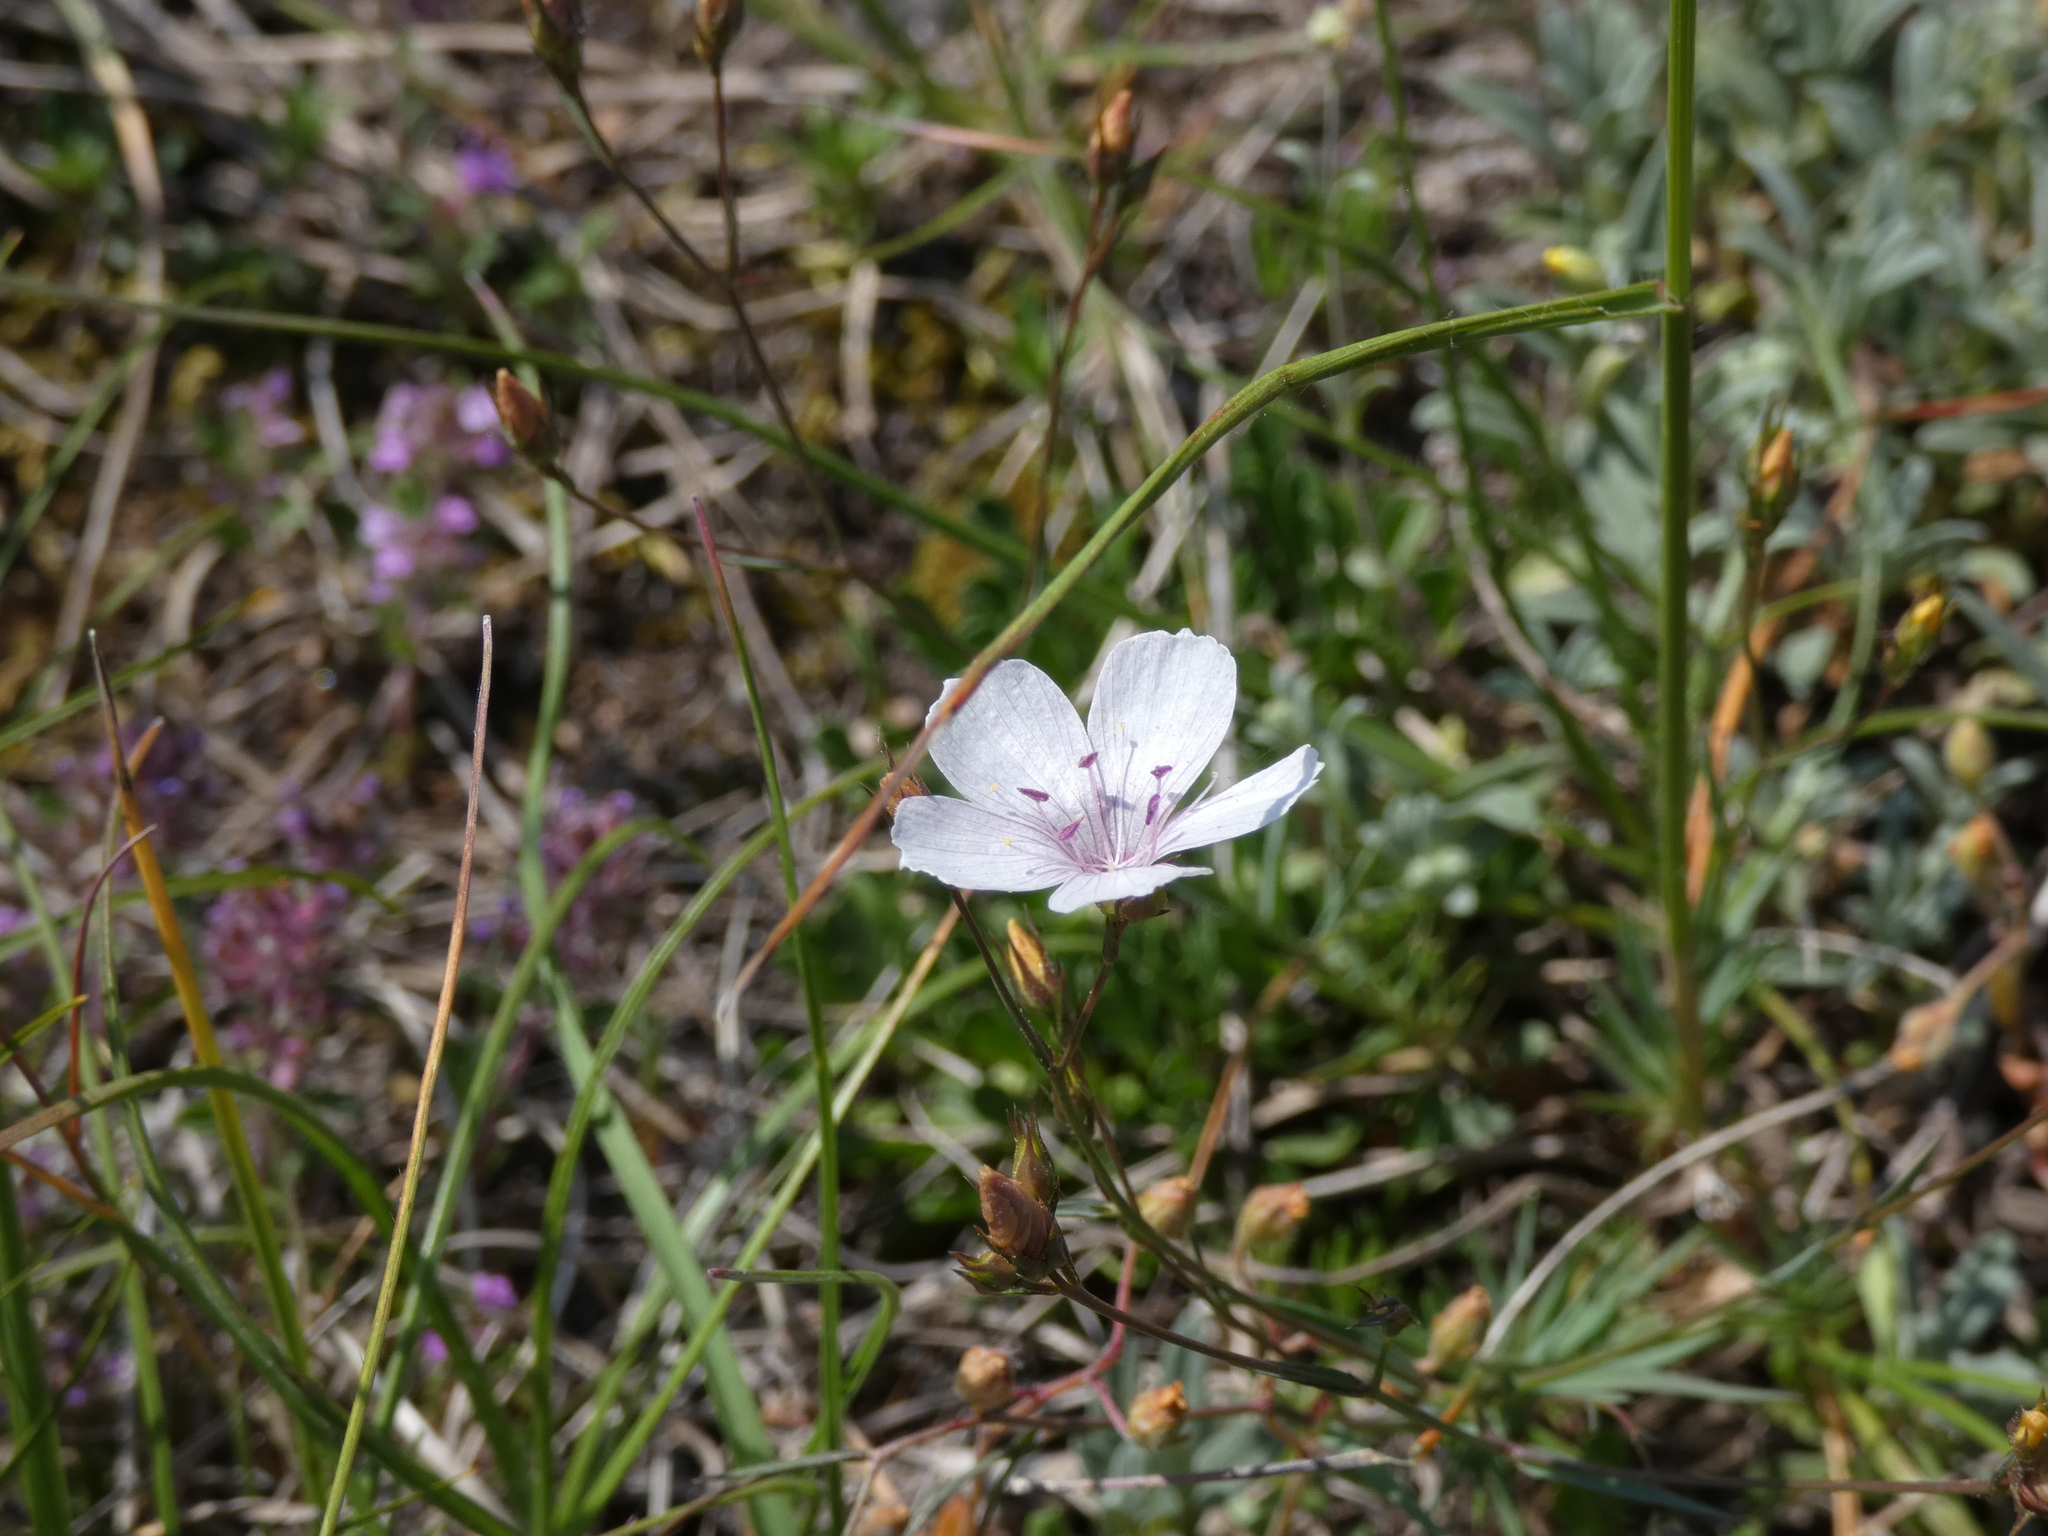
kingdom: Plantae
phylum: Tracheophyta
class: Magnoliopsida
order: Malpighiales
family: Linaceae
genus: Linum
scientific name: Linum tenuifolium
